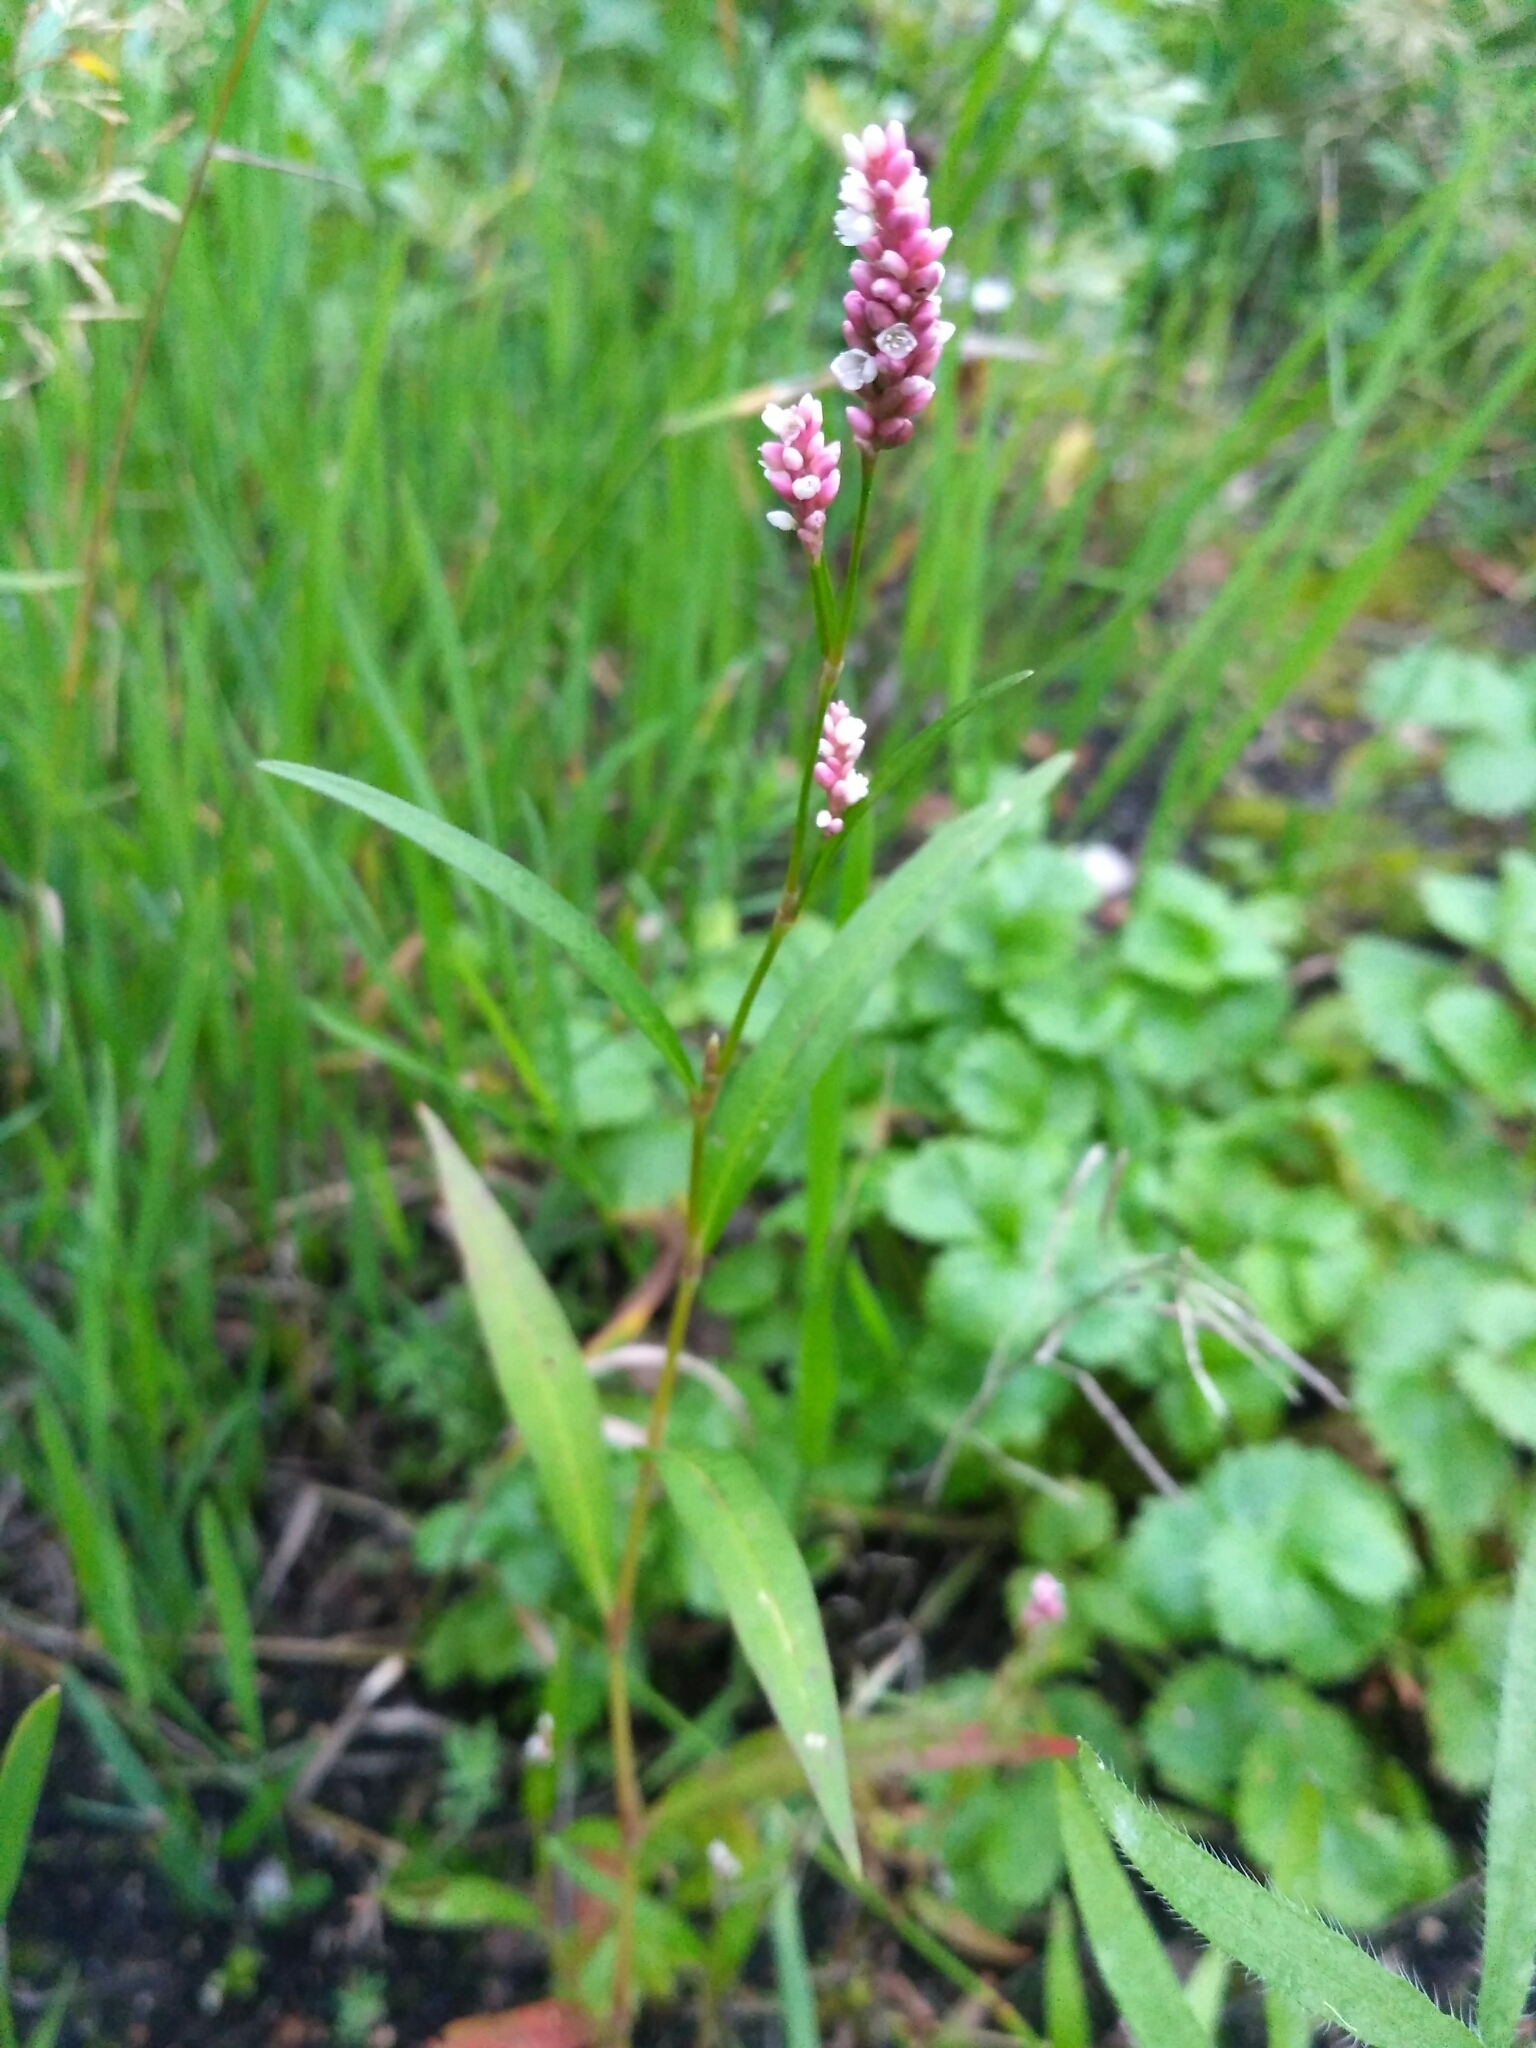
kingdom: Plantae
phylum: Tracheophyta
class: Magnoliopsida
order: Caryophyllales
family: Polygonaceae
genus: Persicaria
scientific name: Persicaria maculosa
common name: Redshank
